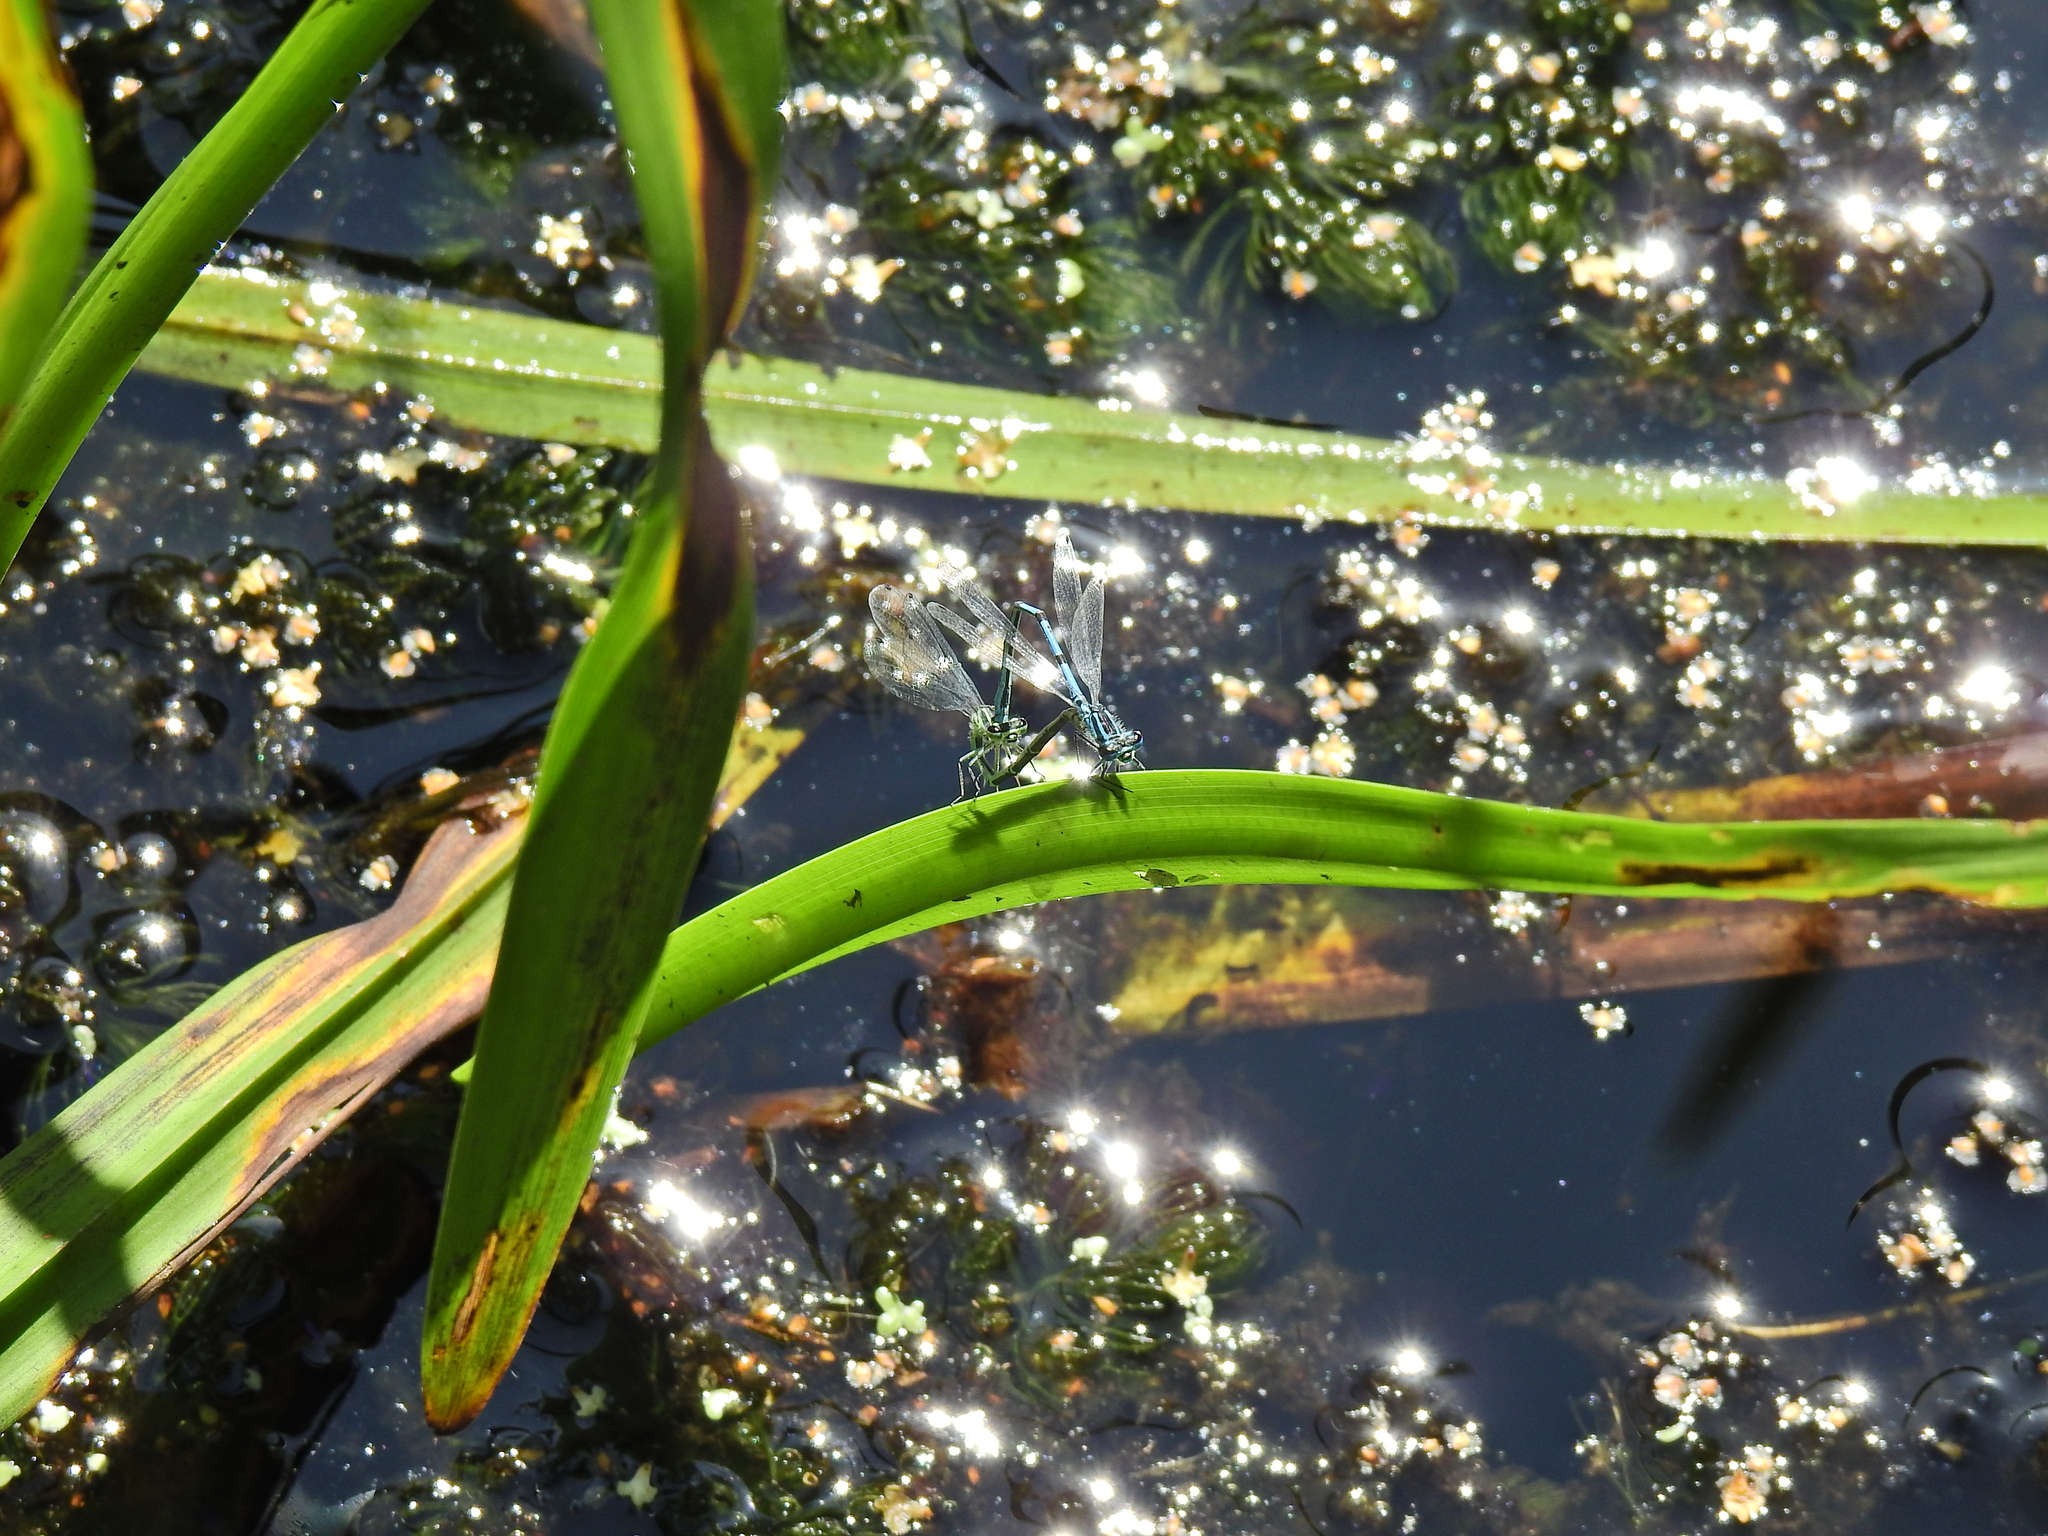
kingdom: Animalia
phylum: Arthropoda
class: Insecta
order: Odonata
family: Coenagrionidae
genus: Coenagrion
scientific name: Coenagrion puella
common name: Azure damselfly
